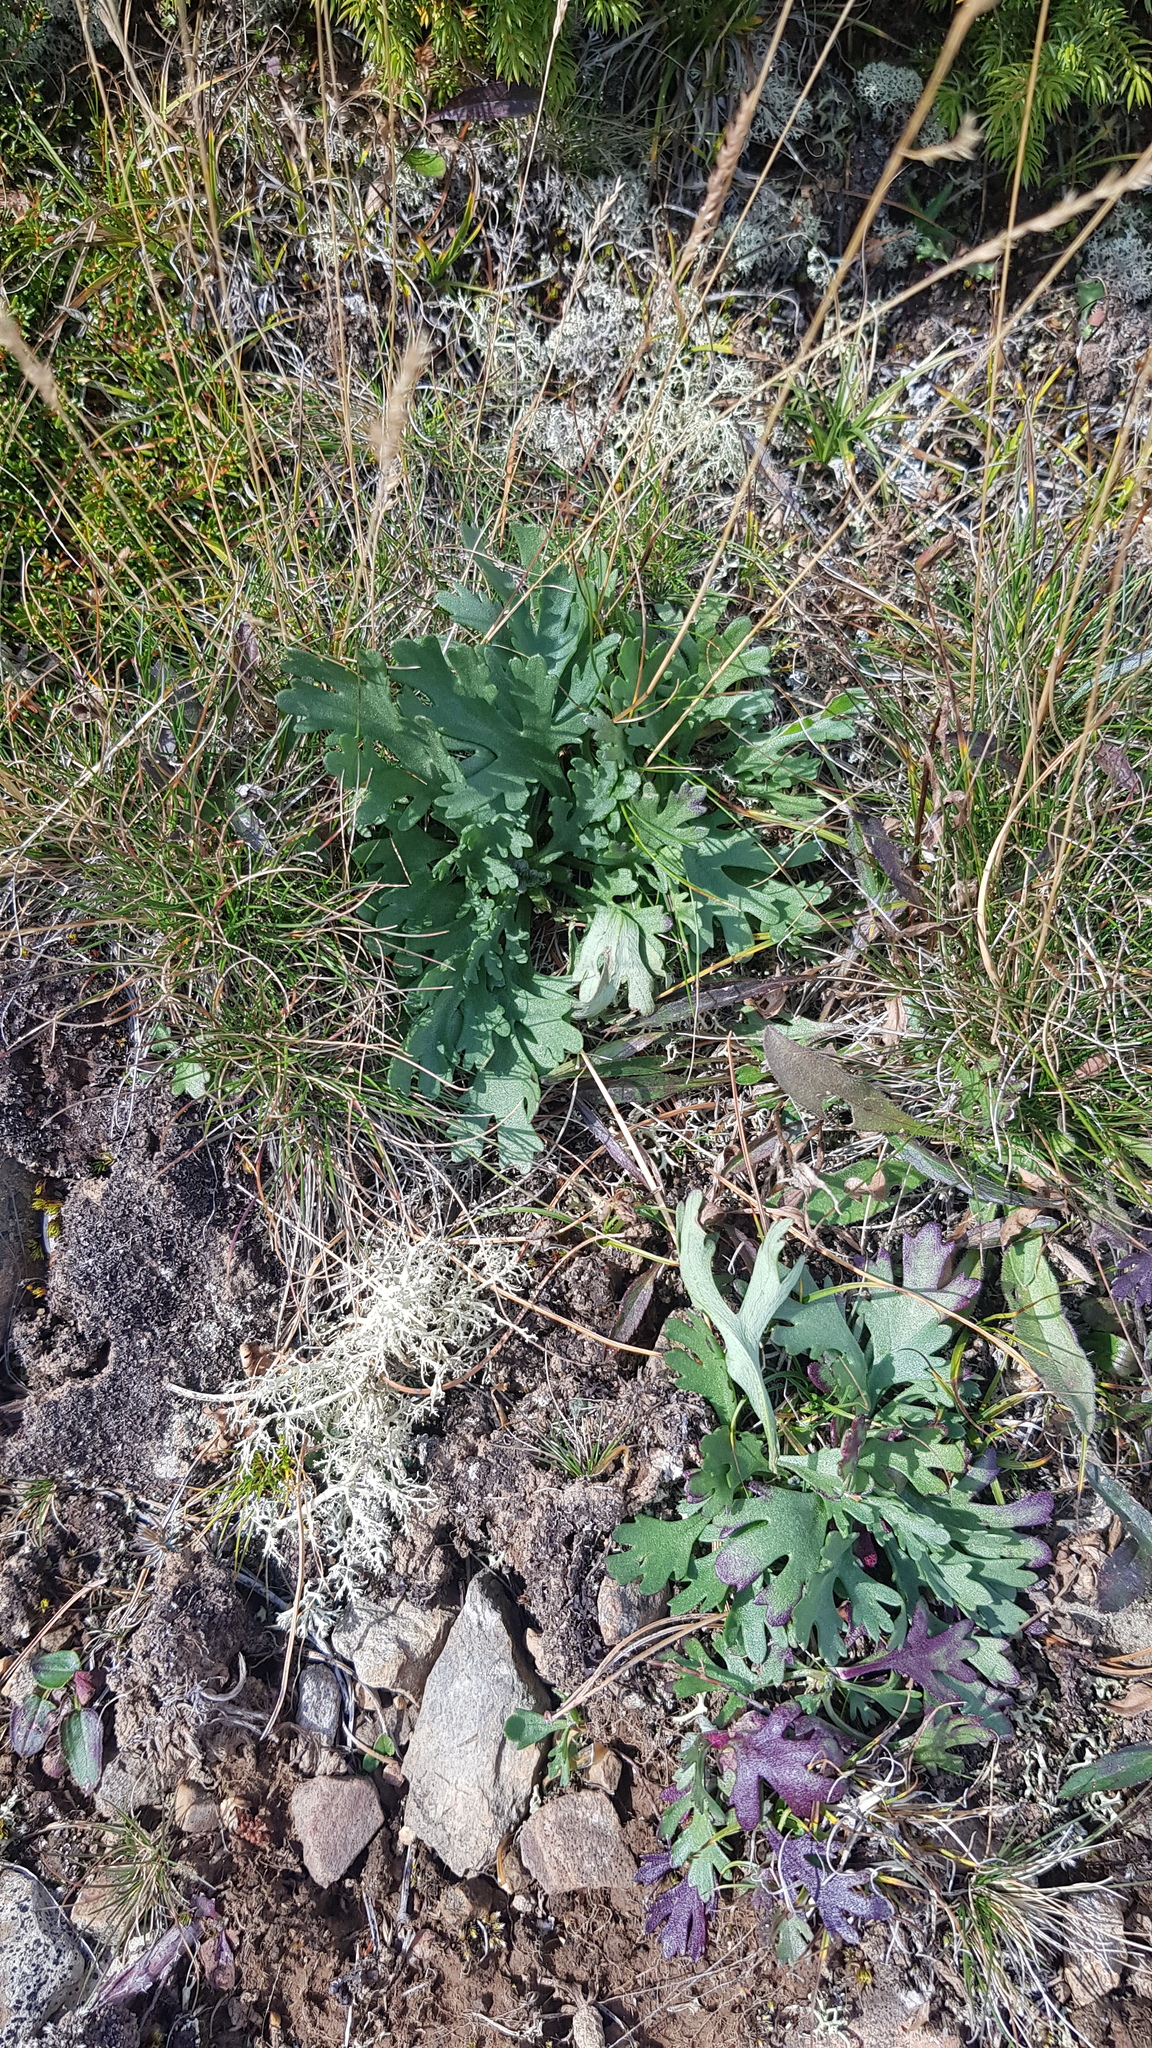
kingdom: Plantae
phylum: Tracheophyta
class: Magnoliopsida
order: Ranunculales
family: Papaveraceae
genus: Papaver
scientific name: Papaver nudicaule
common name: Arctic poppy
